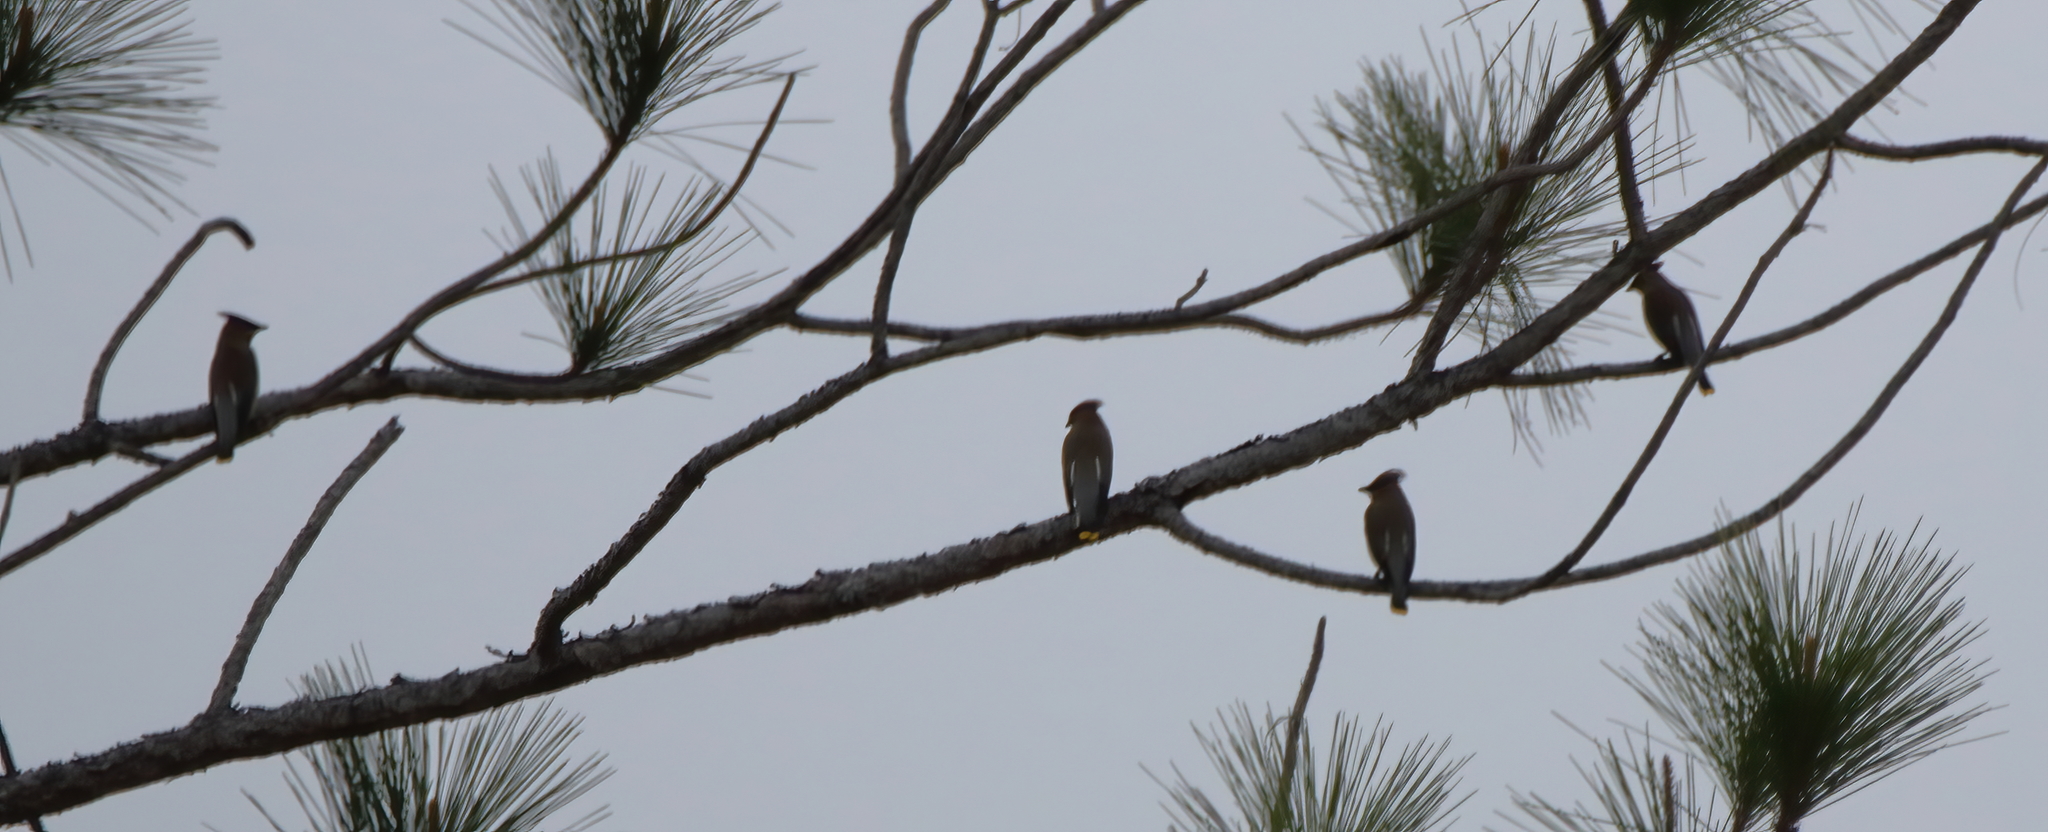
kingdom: Animalia
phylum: Chordata
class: Aves
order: Passeriformes
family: Bombycillidae
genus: Bombycilla
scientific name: Bombycilla cedrorum
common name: Cedar waxwing
